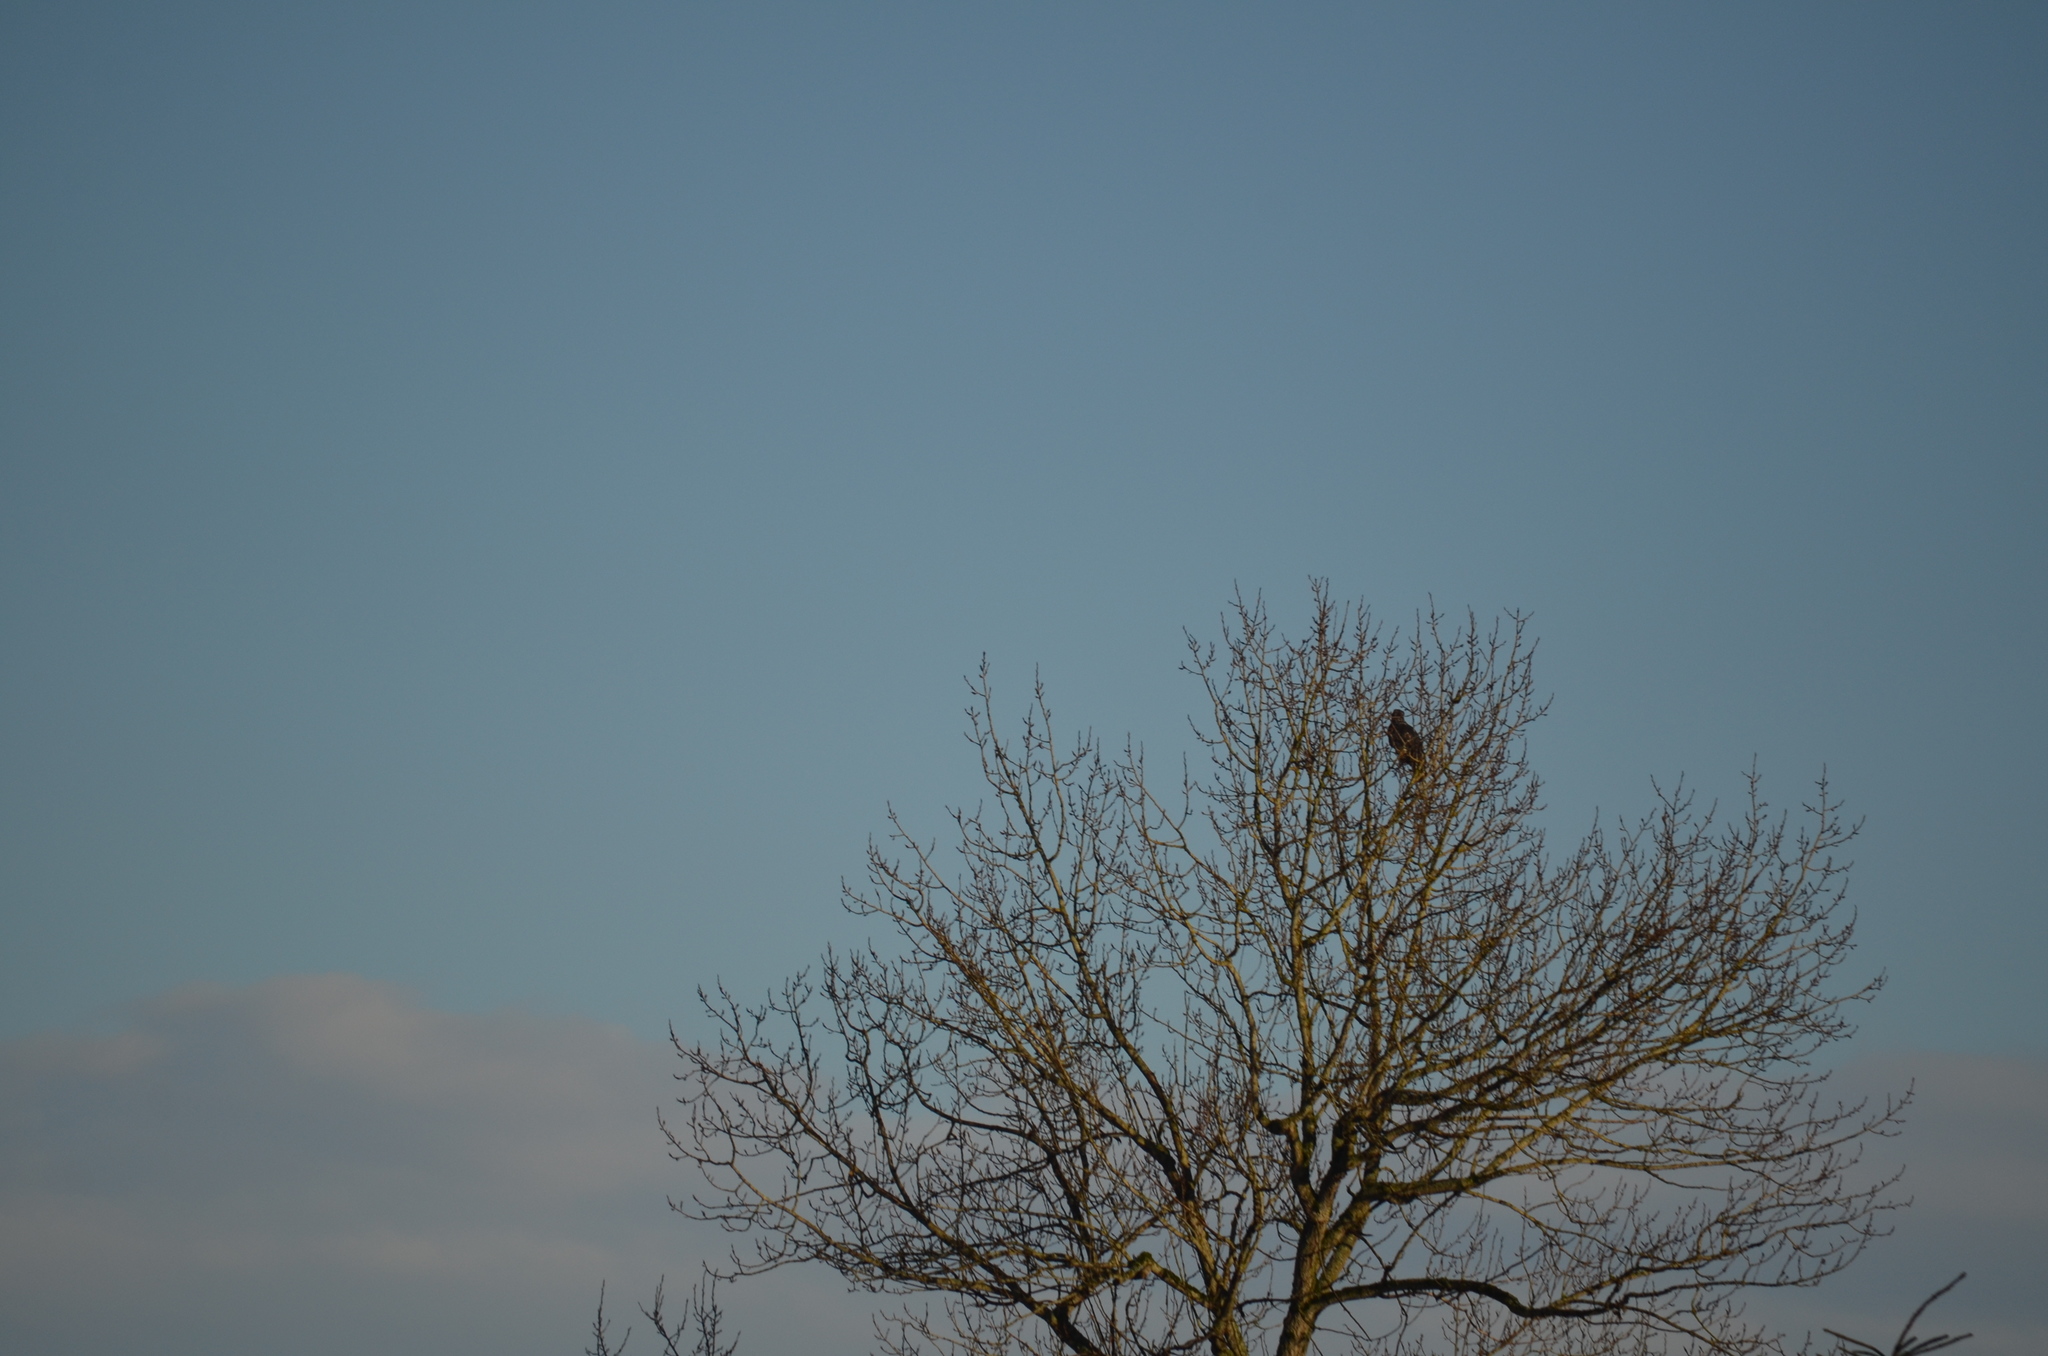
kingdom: Animalia
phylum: Chordata
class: Aves
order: Accipitriformes
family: Accipitridae
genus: Haliaeetus
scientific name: Haliaeetus leucocephalus
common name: Bald eagle
